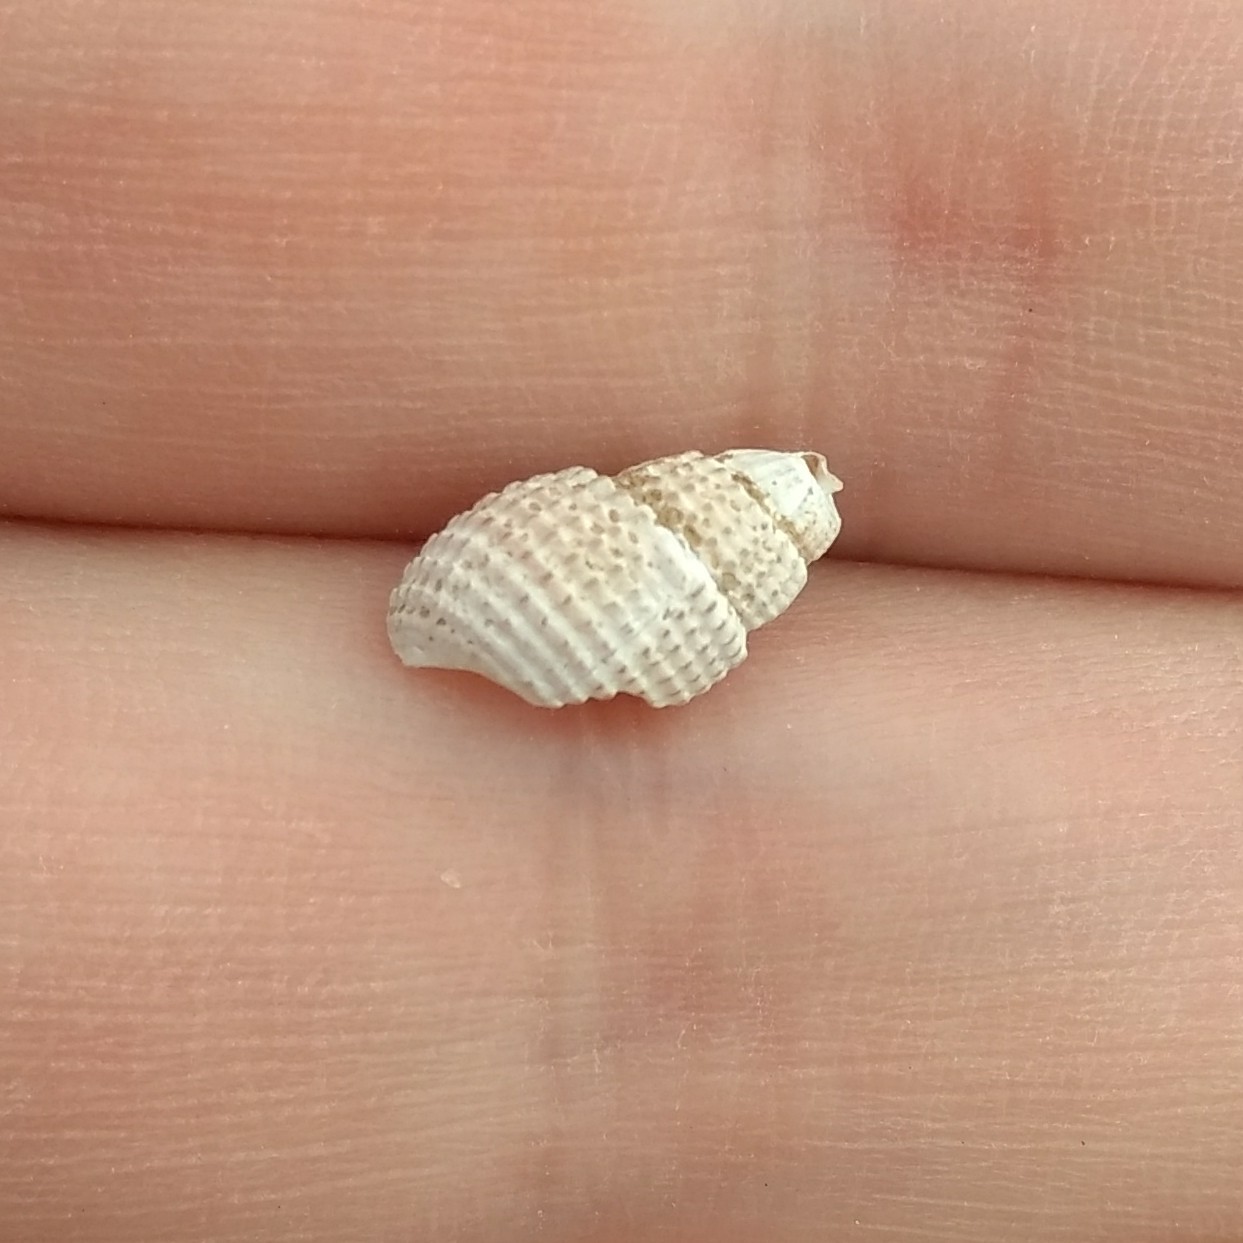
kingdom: Animalia
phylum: Mollusca
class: Gastropoda
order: Neogastropoda
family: Nassariidae
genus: Ilyanassa
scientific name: Ilyanassa trivittata
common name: Three-line mudsnail
